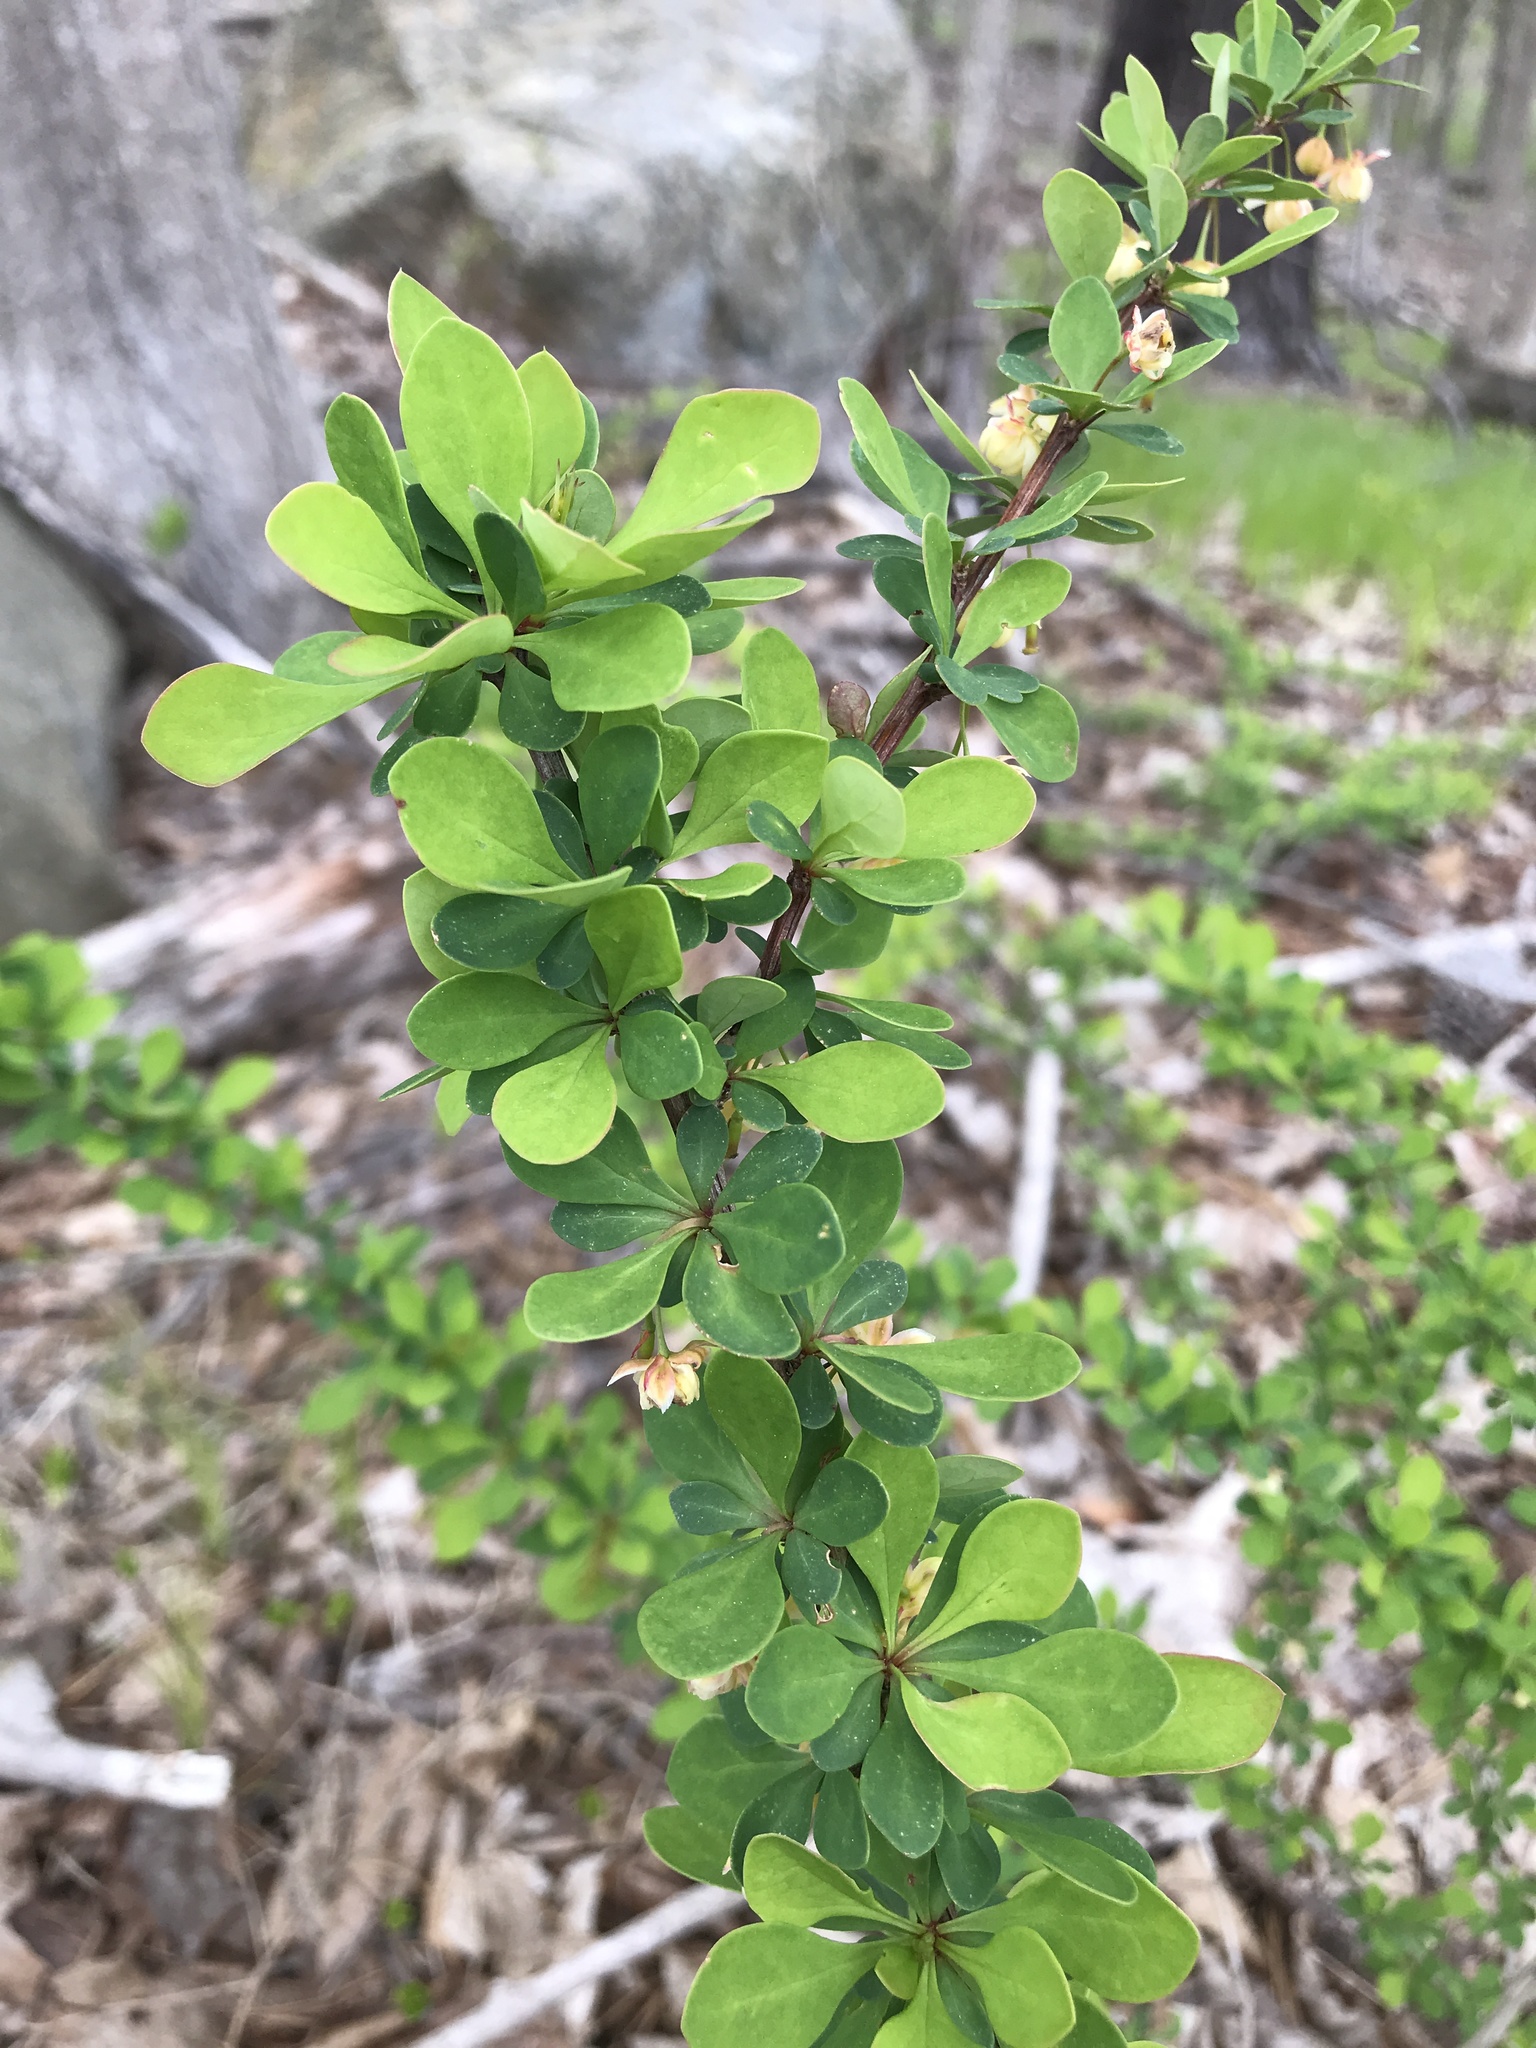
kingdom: Plantae
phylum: Tracheophyta
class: Magnoliopsida
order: Ranunculales
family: Berberidaceae
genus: Berberis
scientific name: Berberis thunbergii
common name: Japanese barberry
